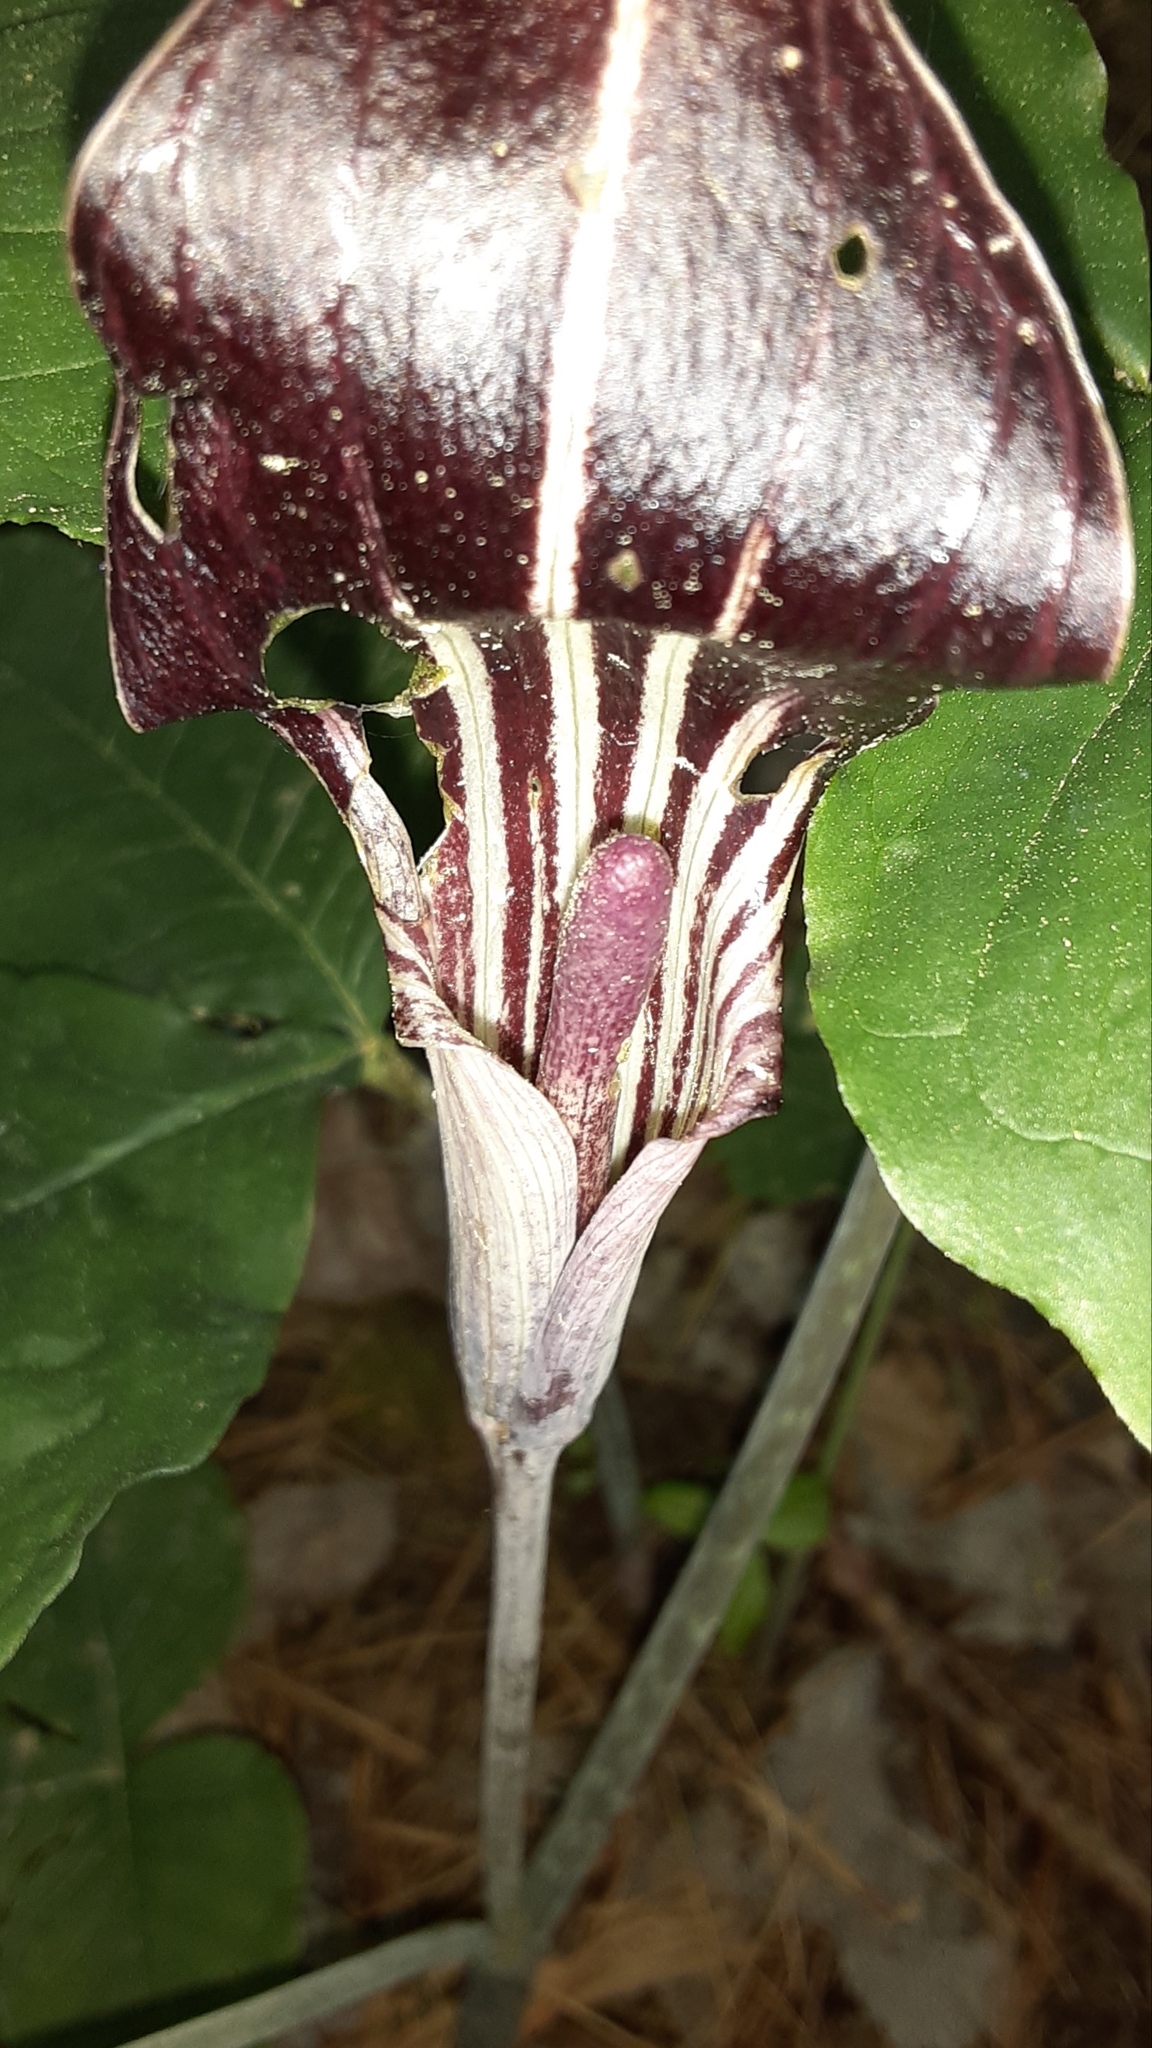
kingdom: Plantae
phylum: Tracheophyta
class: Liliopsida
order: Alismatales
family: Araceae
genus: Arisaema
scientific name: Arisaema triphyllum
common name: Jack-in-the-pulpit
